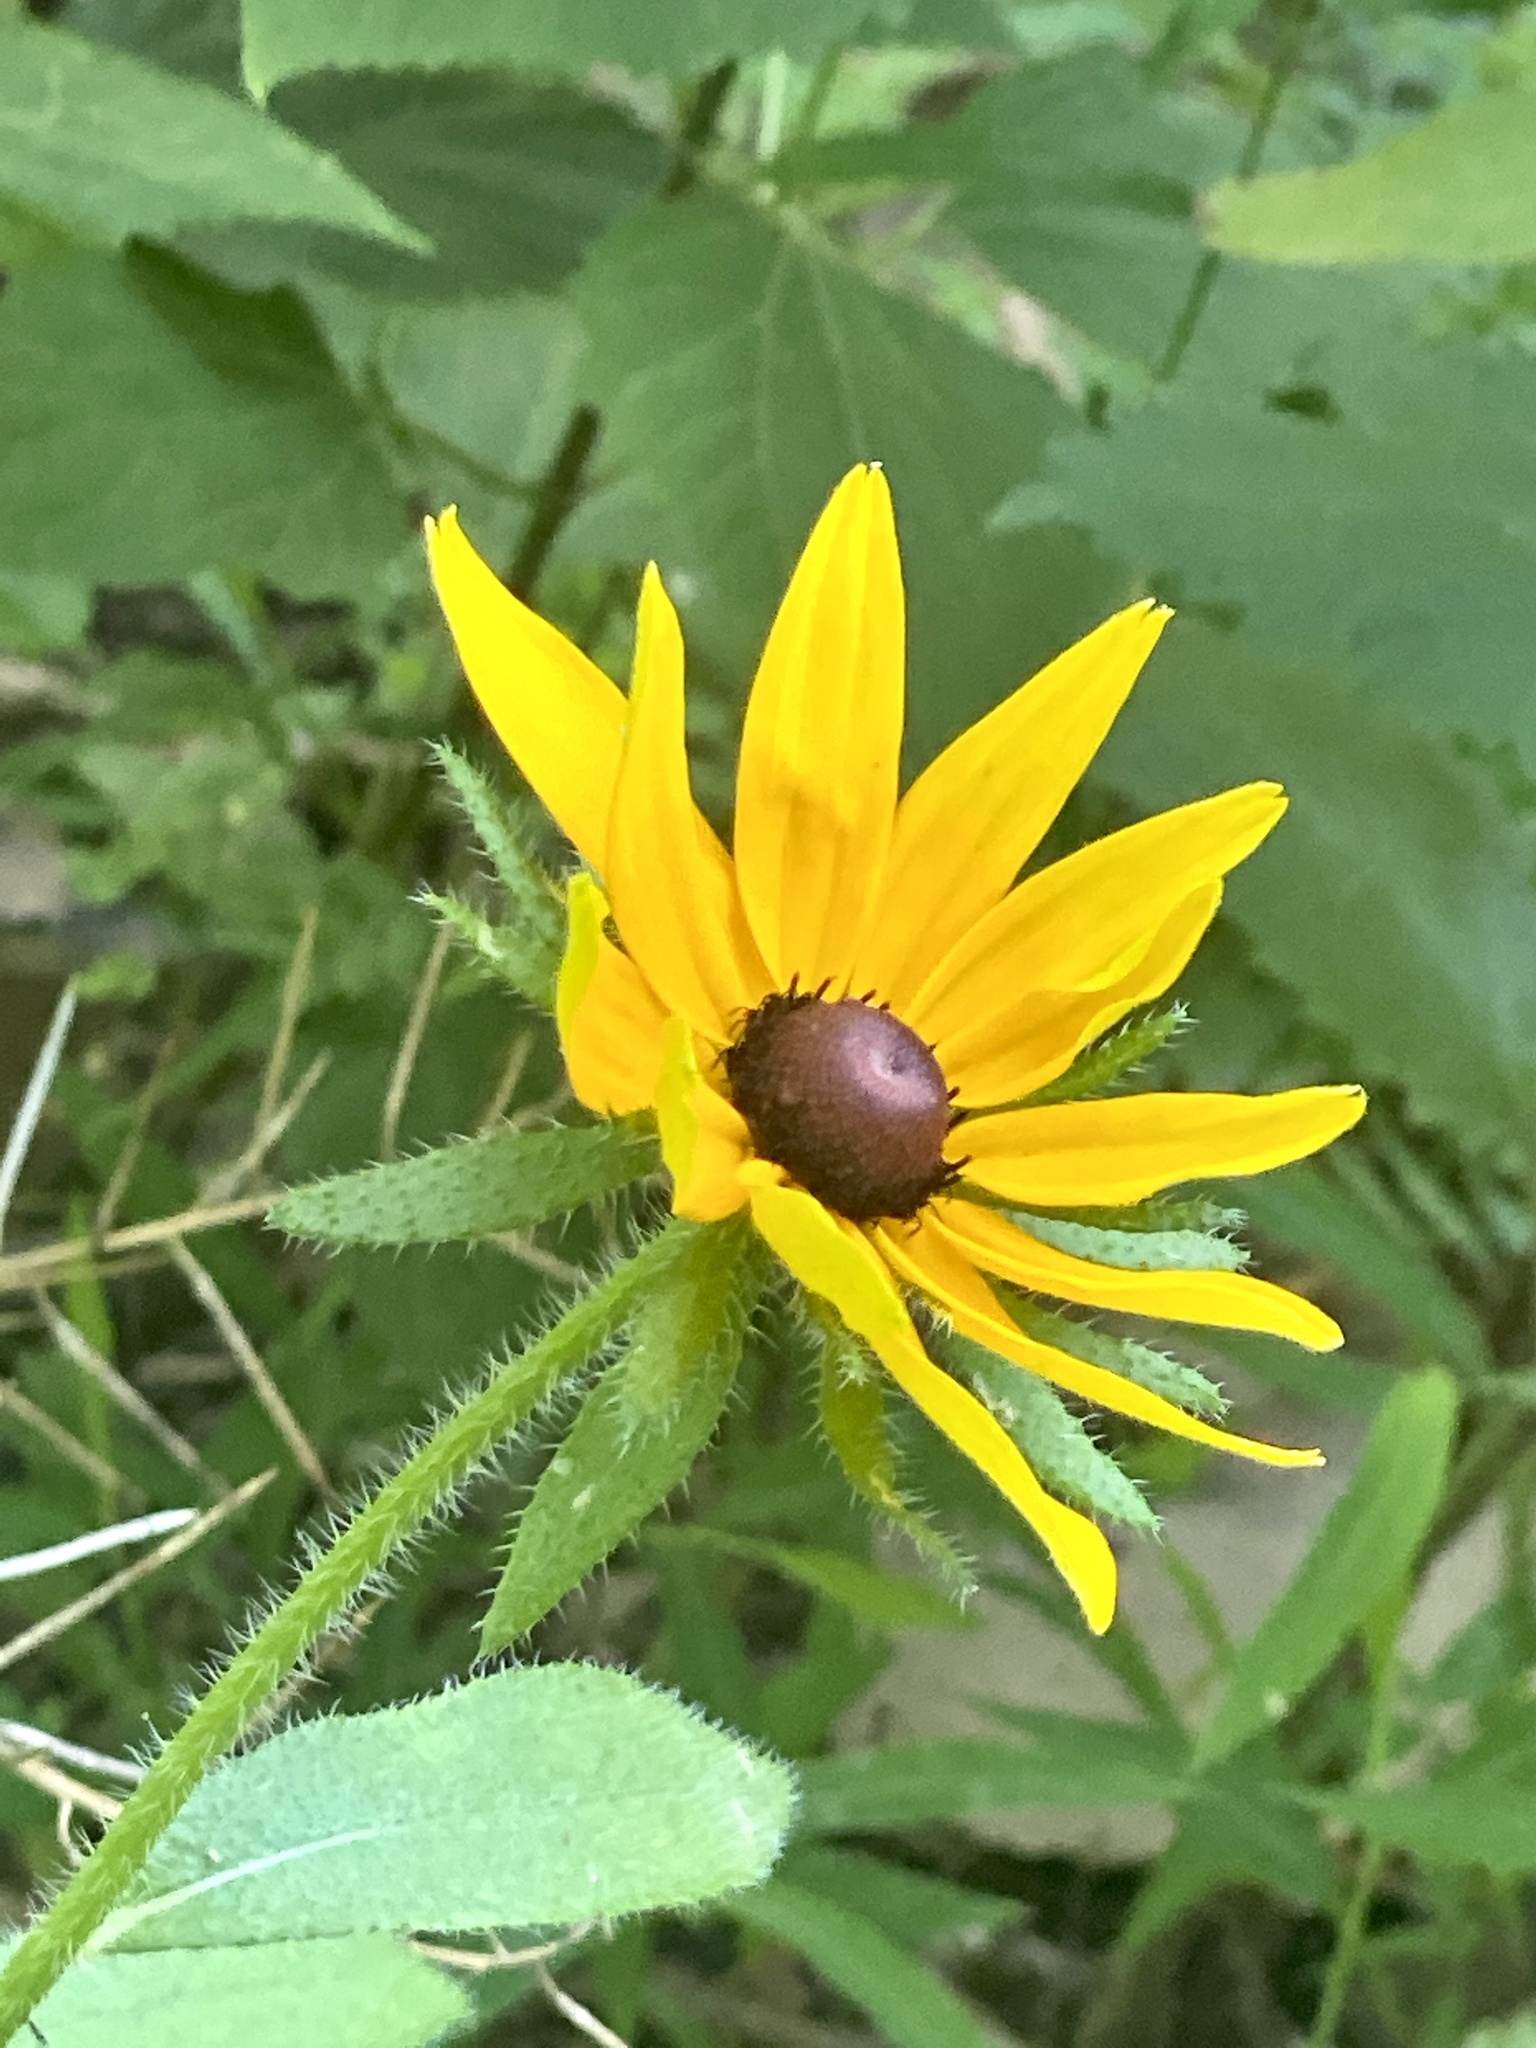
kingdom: Plantae
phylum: Tracheophyta
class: Magnoliopsida
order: Asterales
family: Asteraceae
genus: Rudbeckia
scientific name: Rudbeckia hirta
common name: Black-eyed-susan
